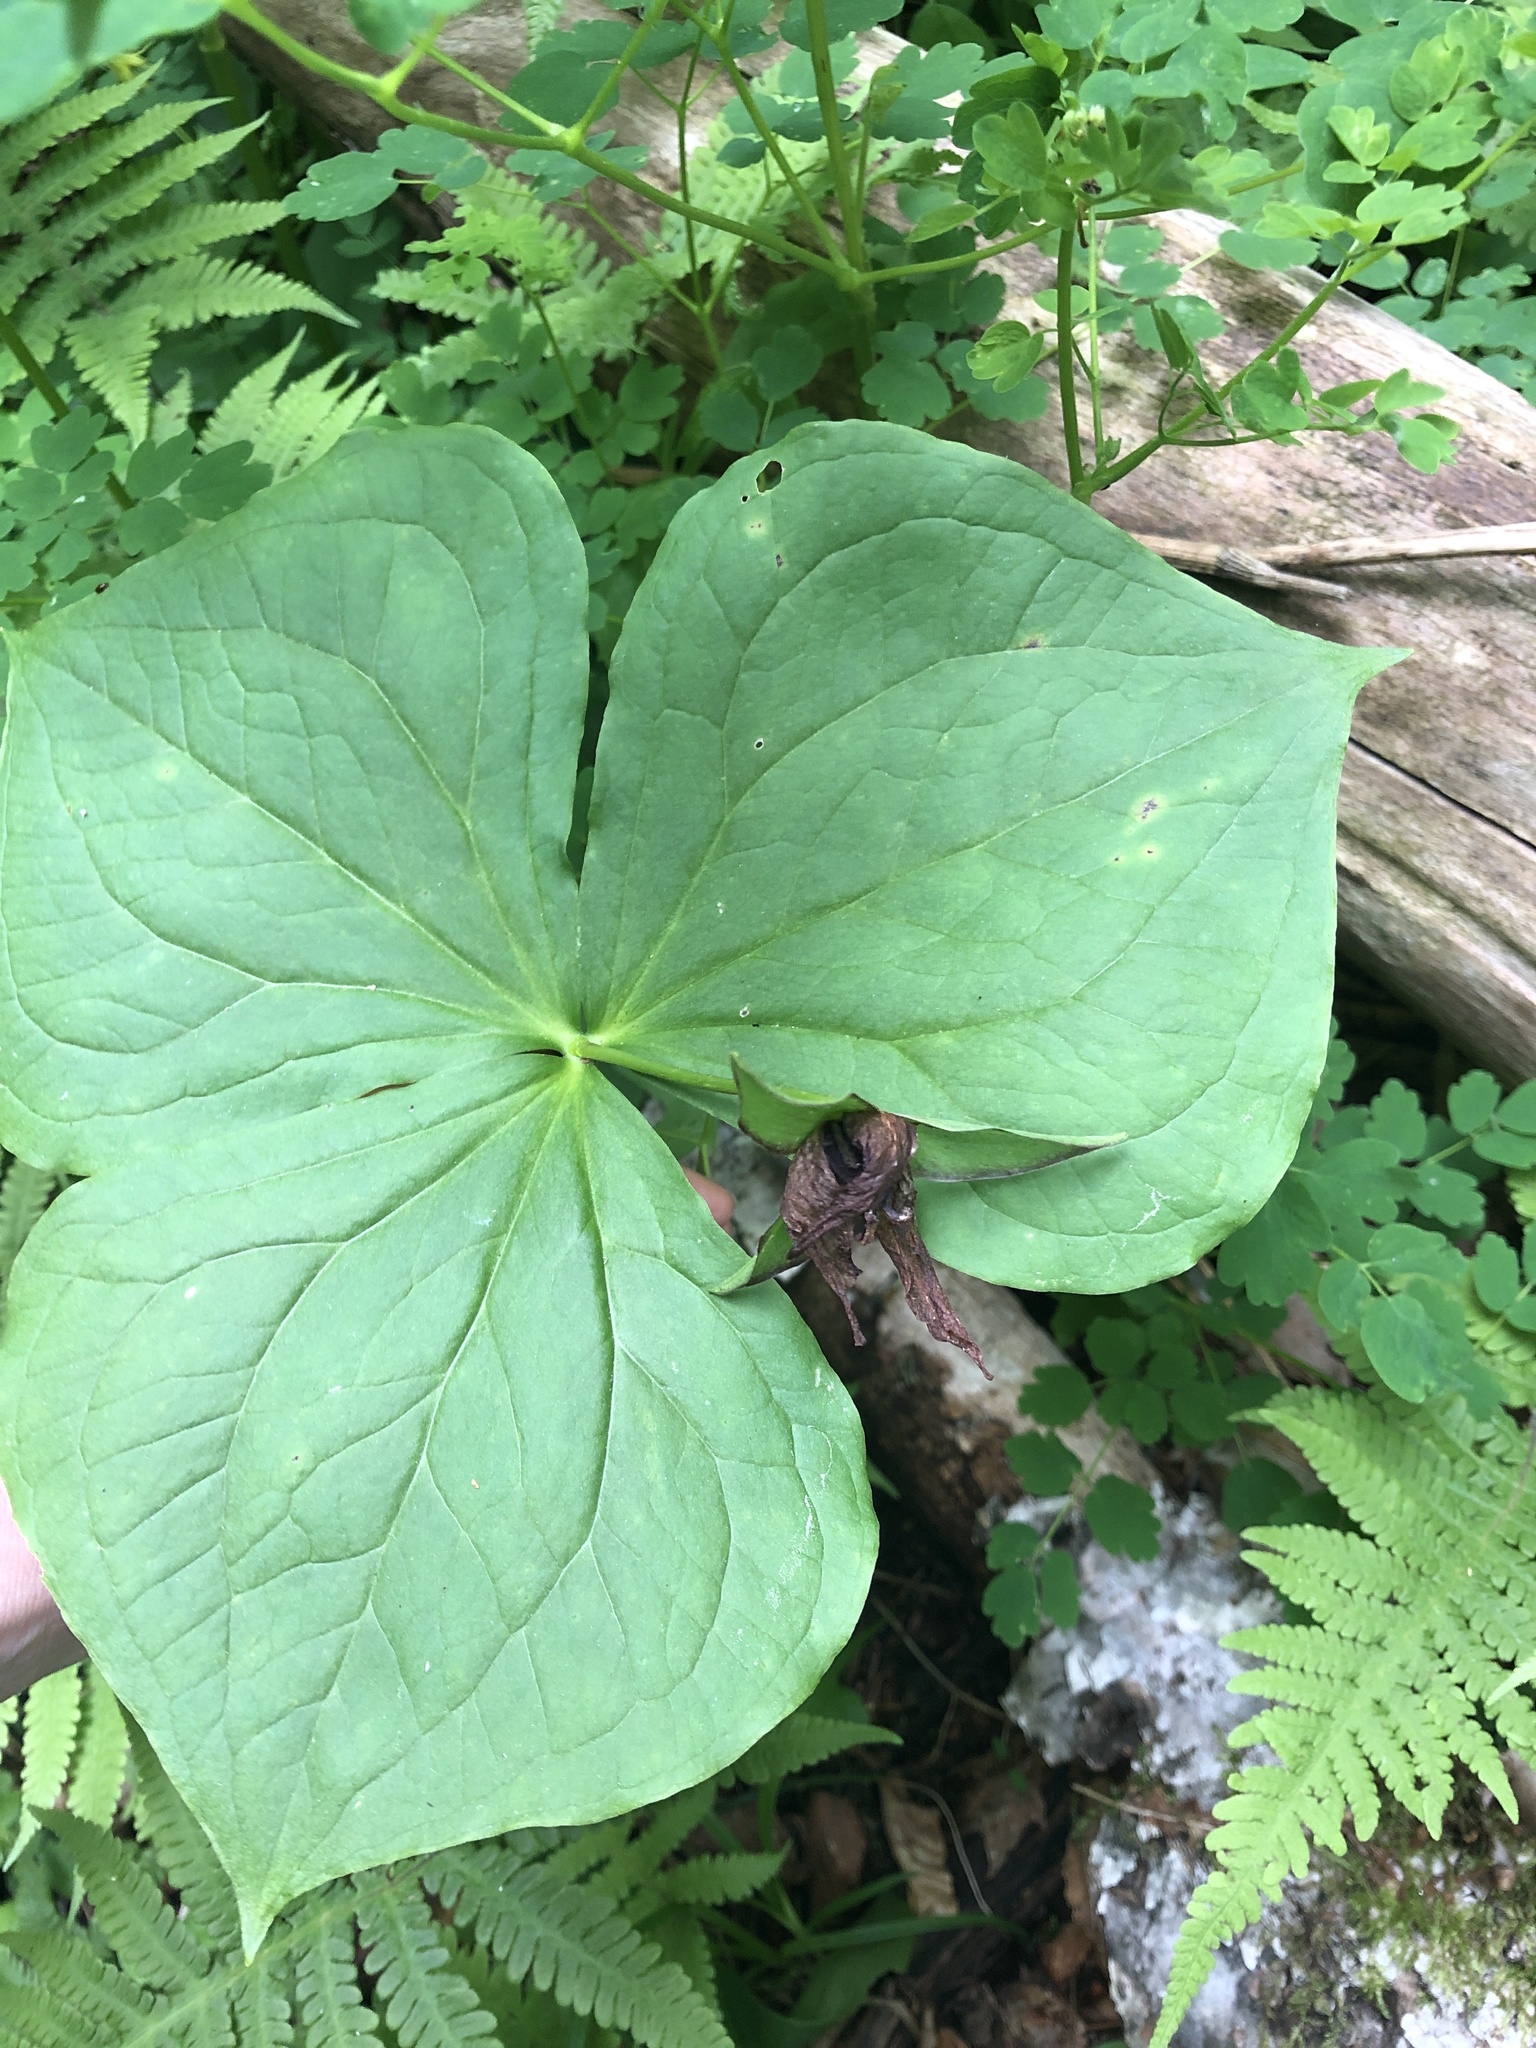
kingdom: Plantae
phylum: Tracheophyta
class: Liliopsida
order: Liliales
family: Melanthiaceae
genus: Trillium
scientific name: Trillium erectum
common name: Purple trillium
